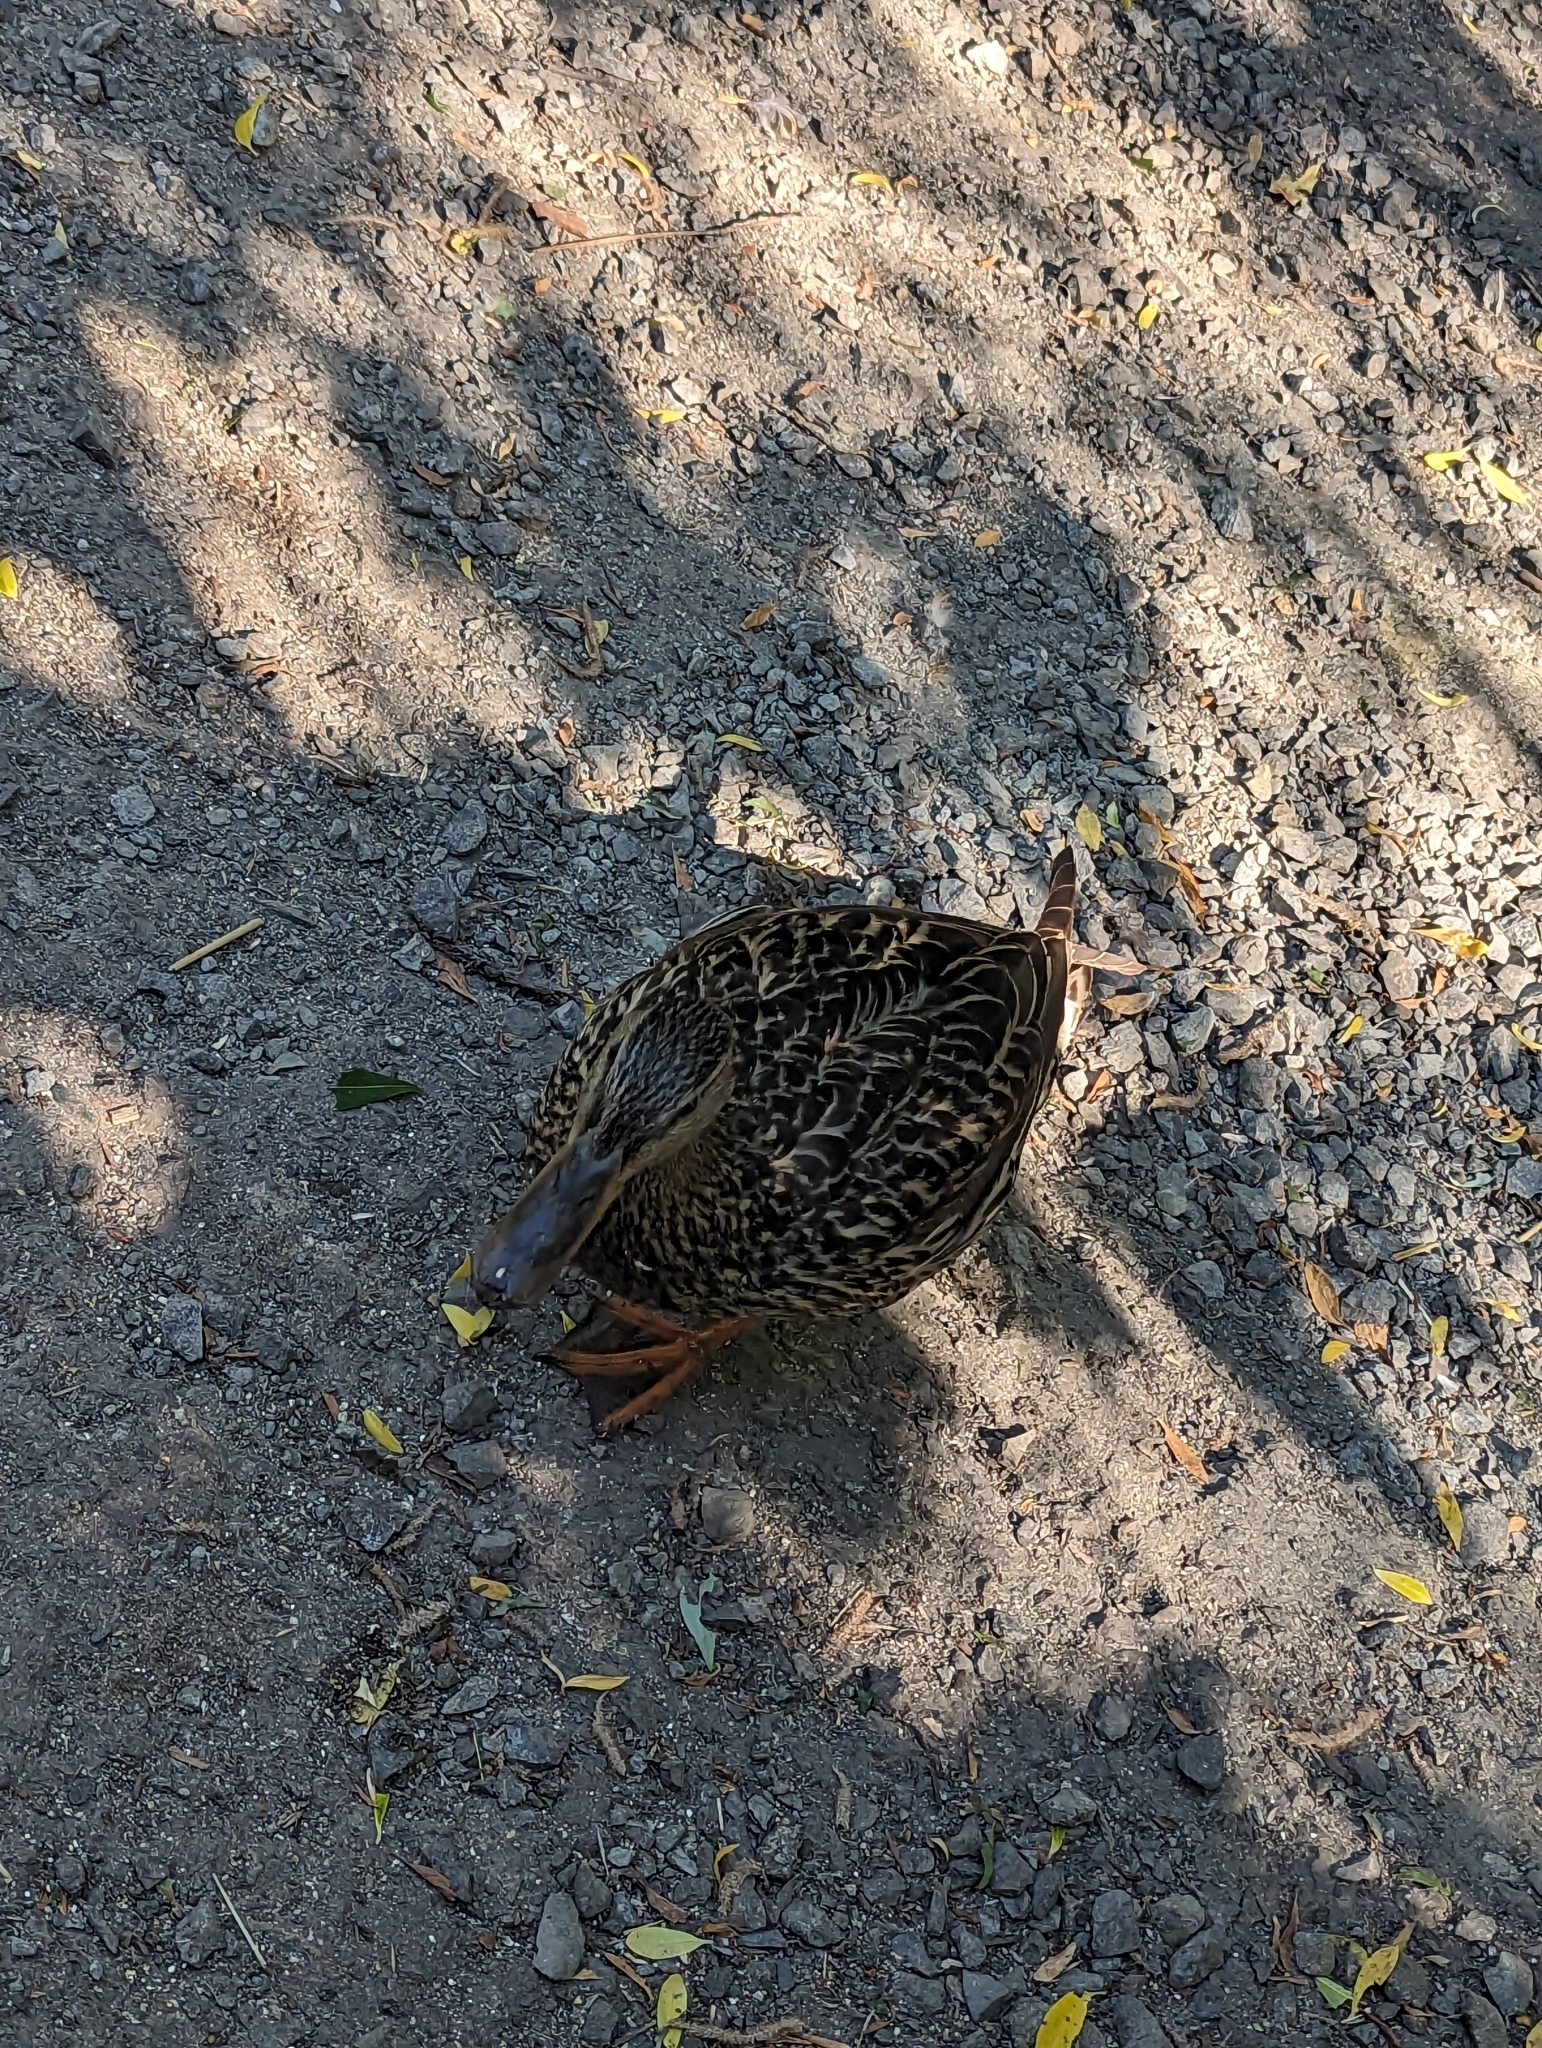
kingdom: Animalia
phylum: Chordata
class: Aves
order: Anseriformes
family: Anatidae
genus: Anas
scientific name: Anas platyrhynchos
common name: Mallard
